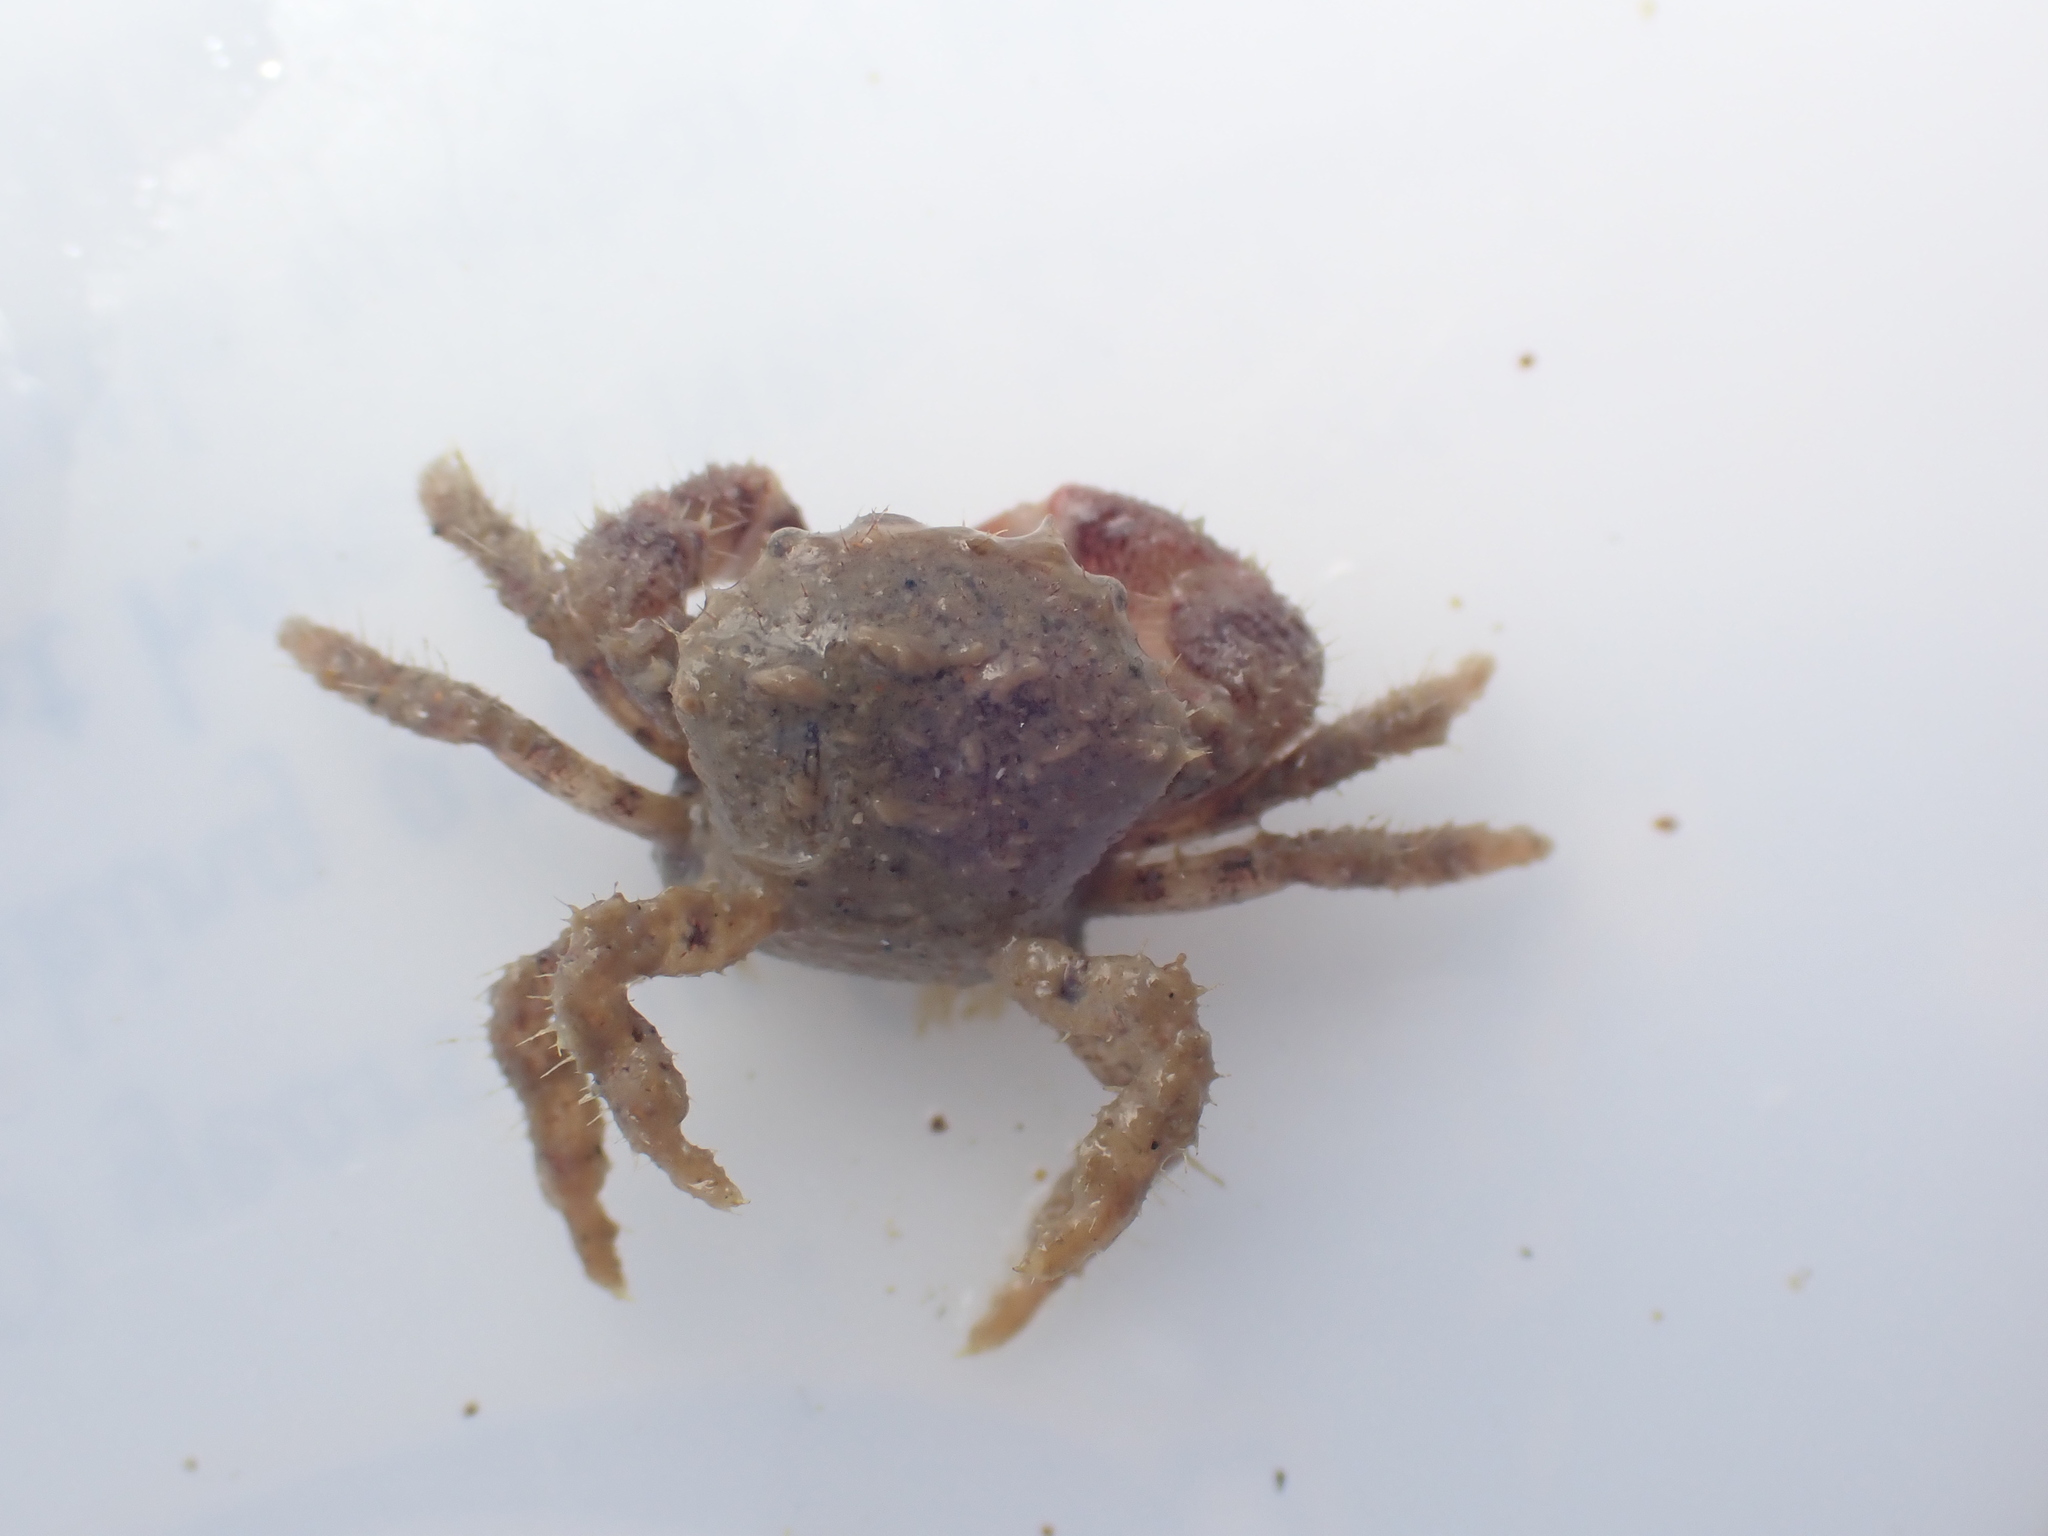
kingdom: Animalia
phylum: Arthropoda
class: Malacostraca
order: Decapoda
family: Pilumnidae
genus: Pilumnus
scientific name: Pilumnus novaezealandiae
